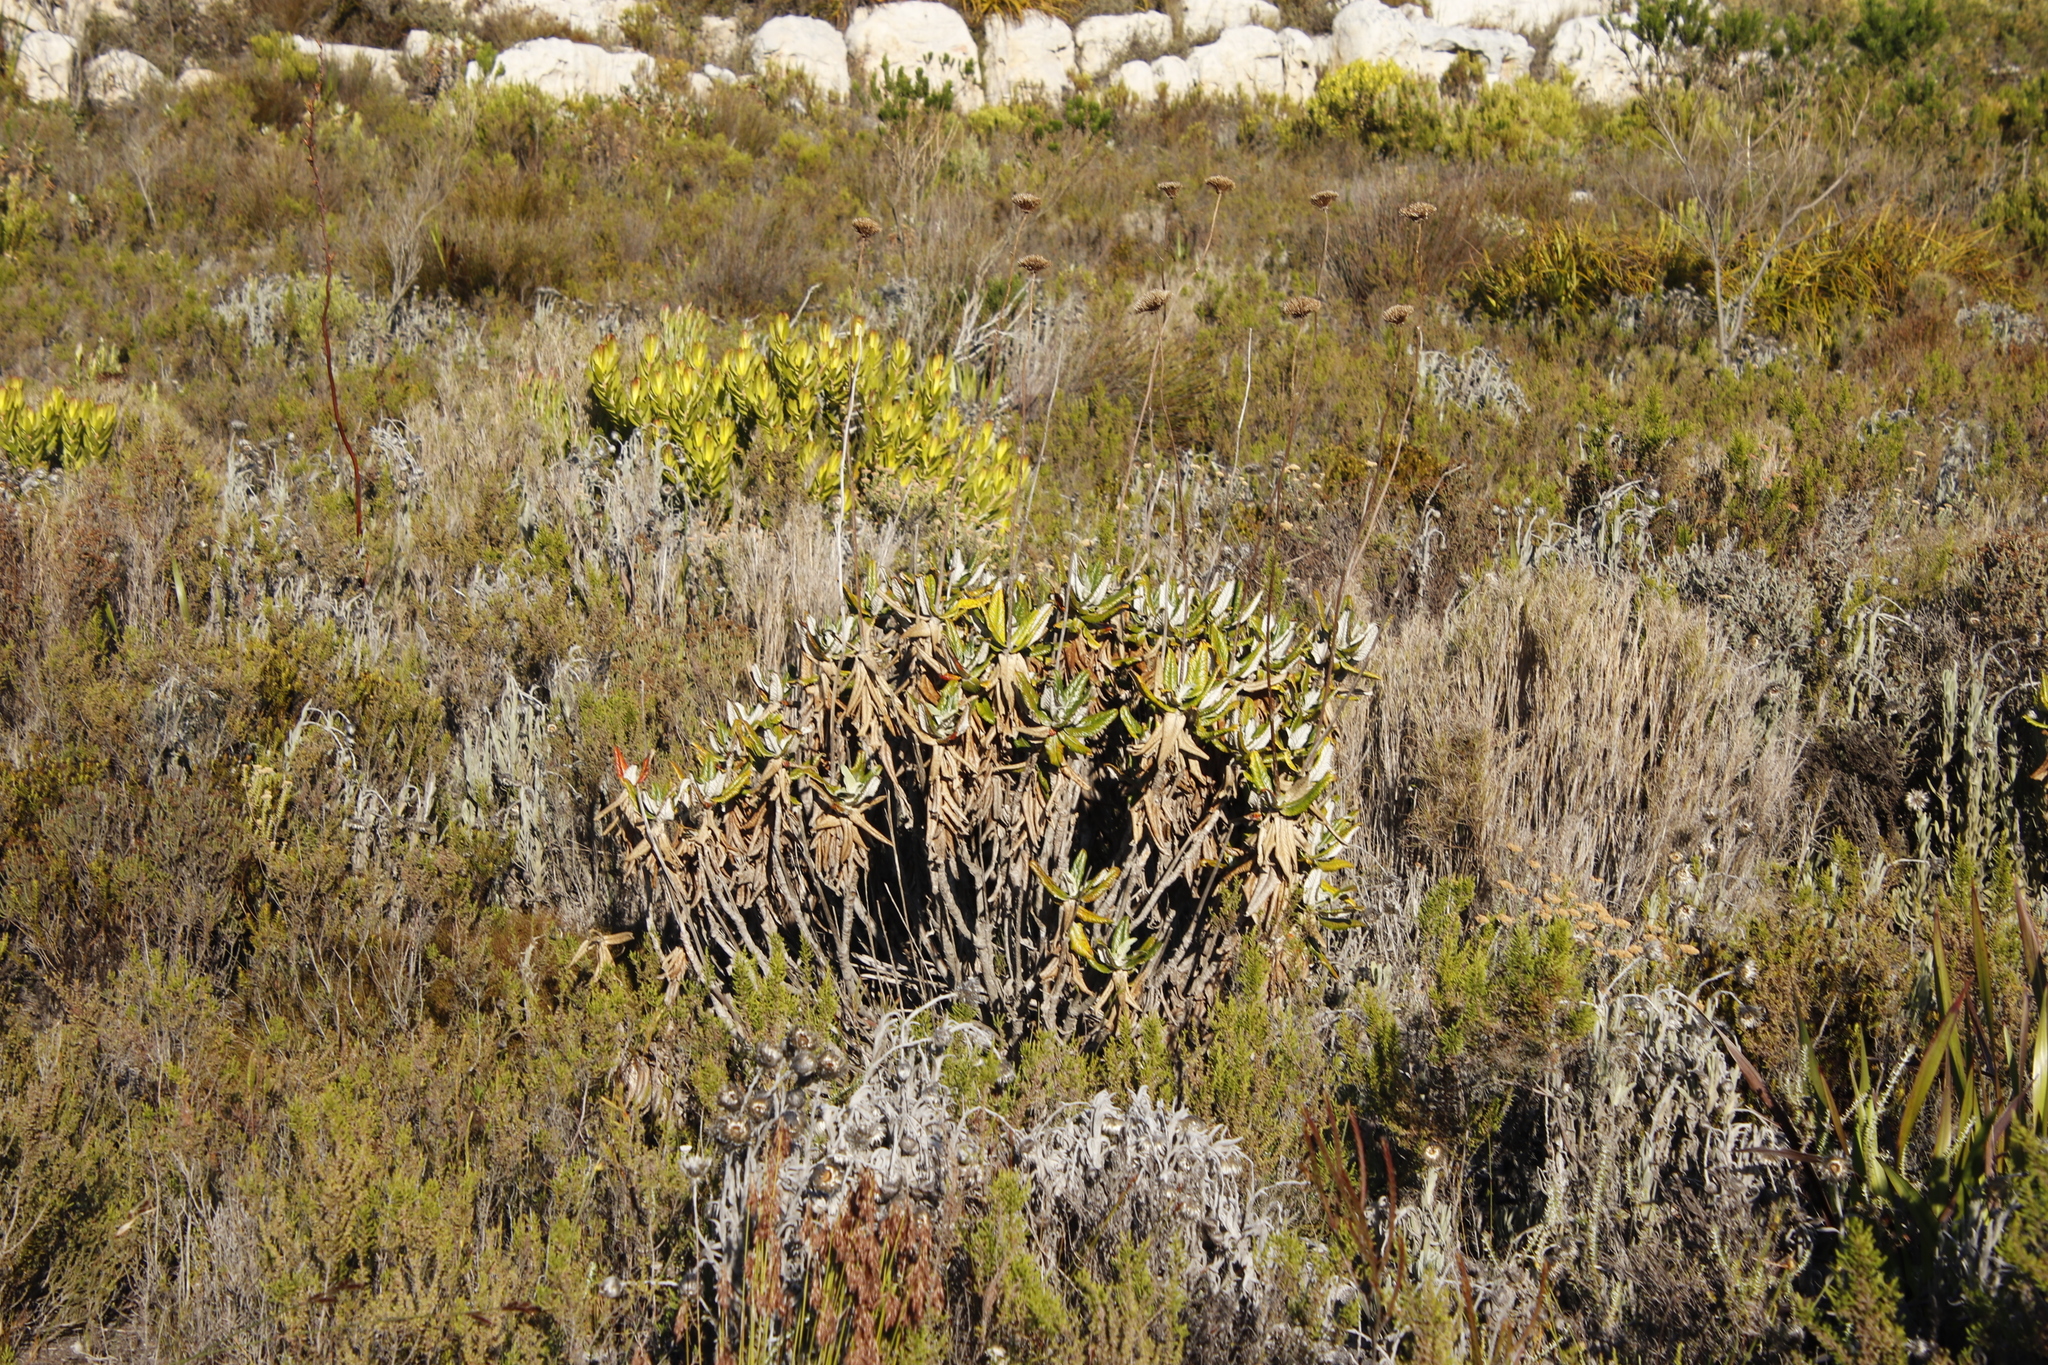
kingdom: Plantae
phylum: Tracheophyta
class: Magnoliopsida
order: Apiales
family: Apiaceae
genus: Hermas
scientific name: Hermas villosa
